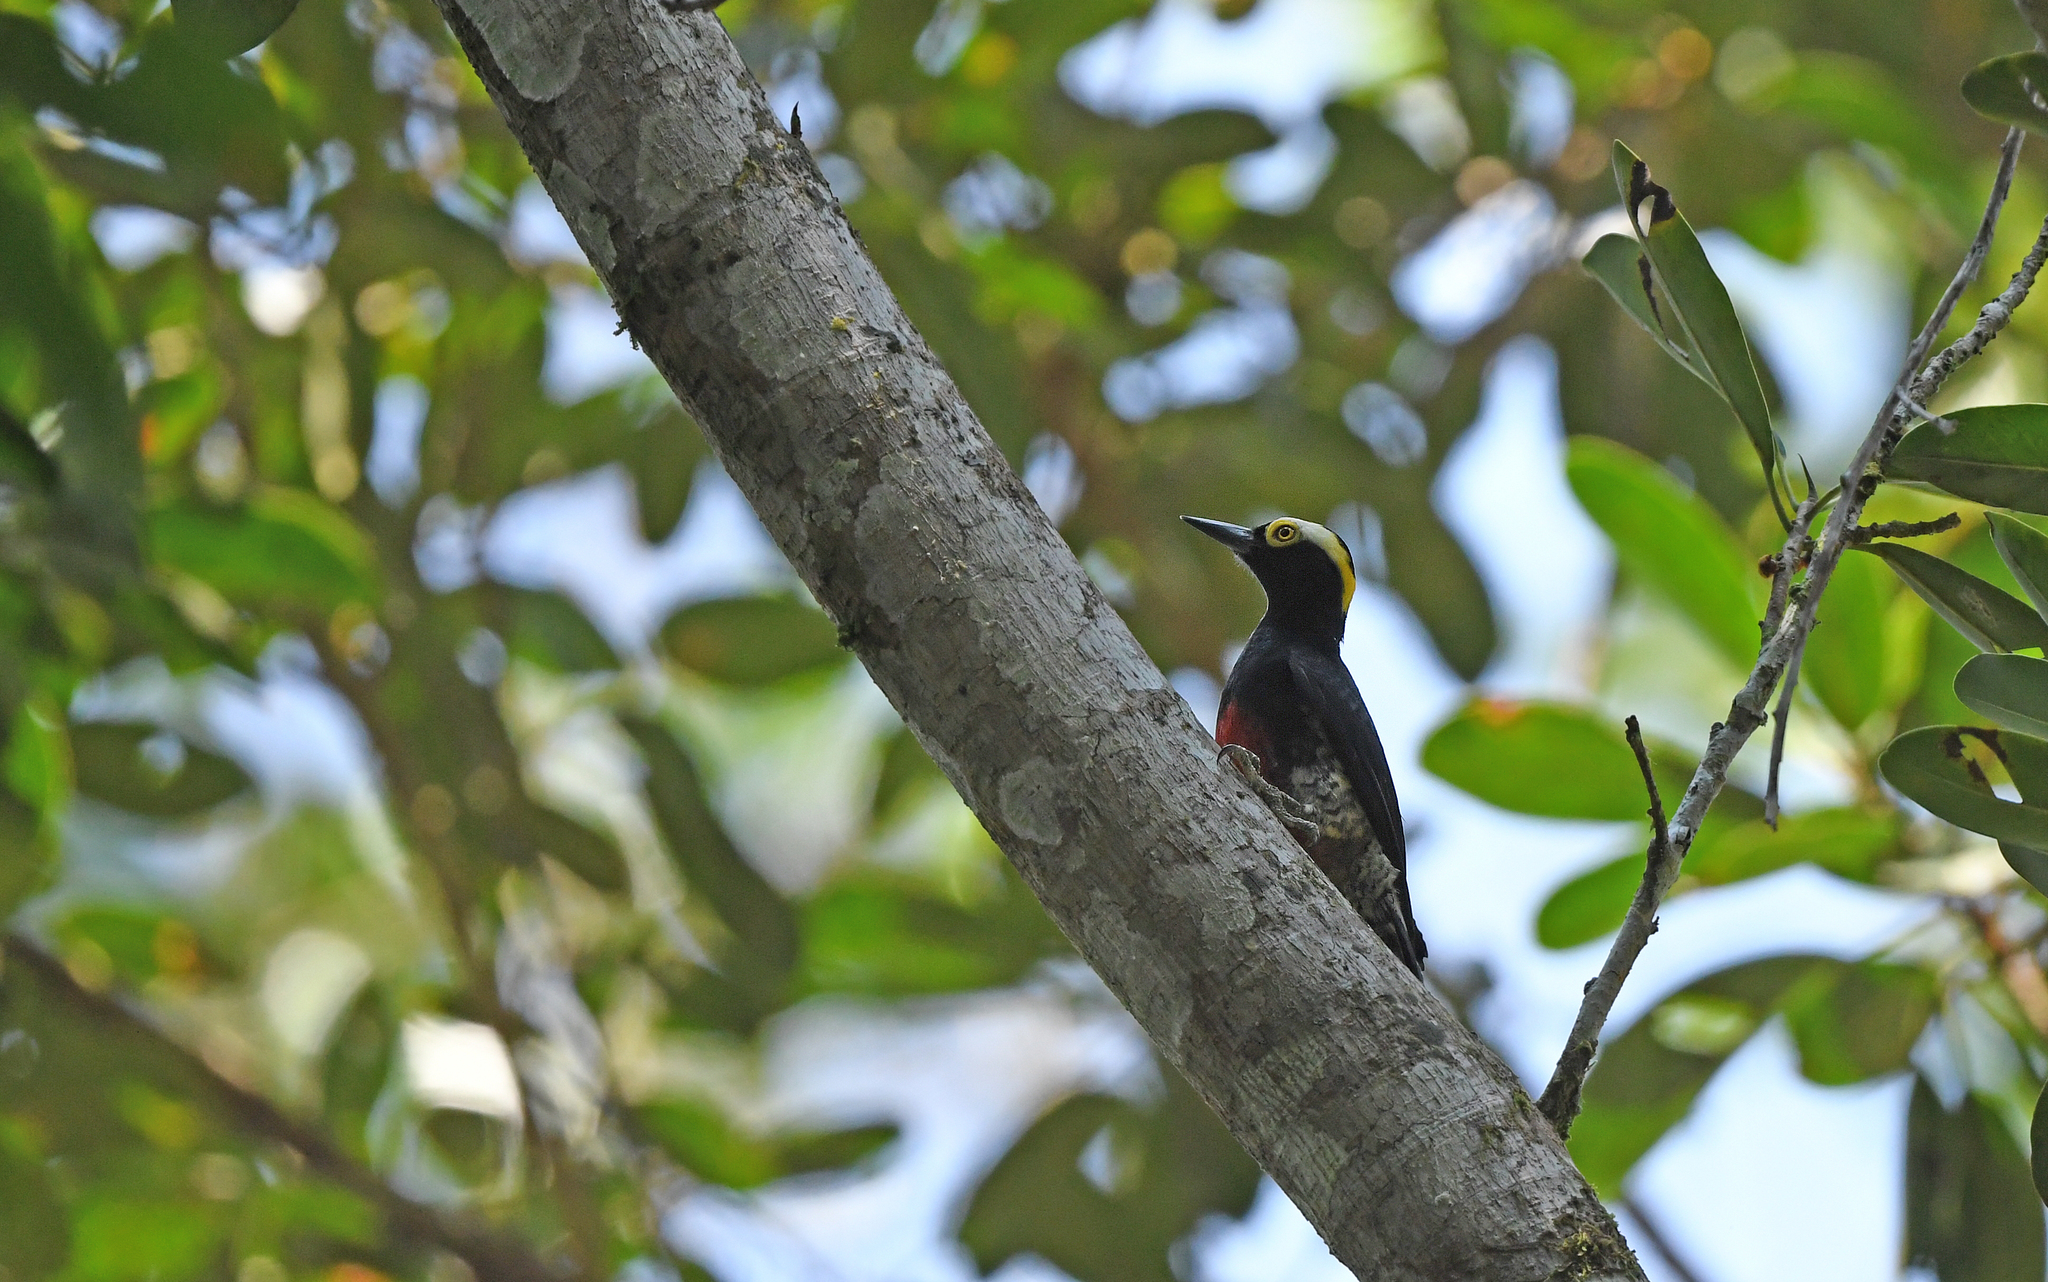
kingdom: Animalia
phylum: Chordata
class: Aves
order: Piciformes
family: Picidae
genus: Melanerpes
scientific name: Melanerpes cruentatus
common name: Yellow-tufted woodpecker
